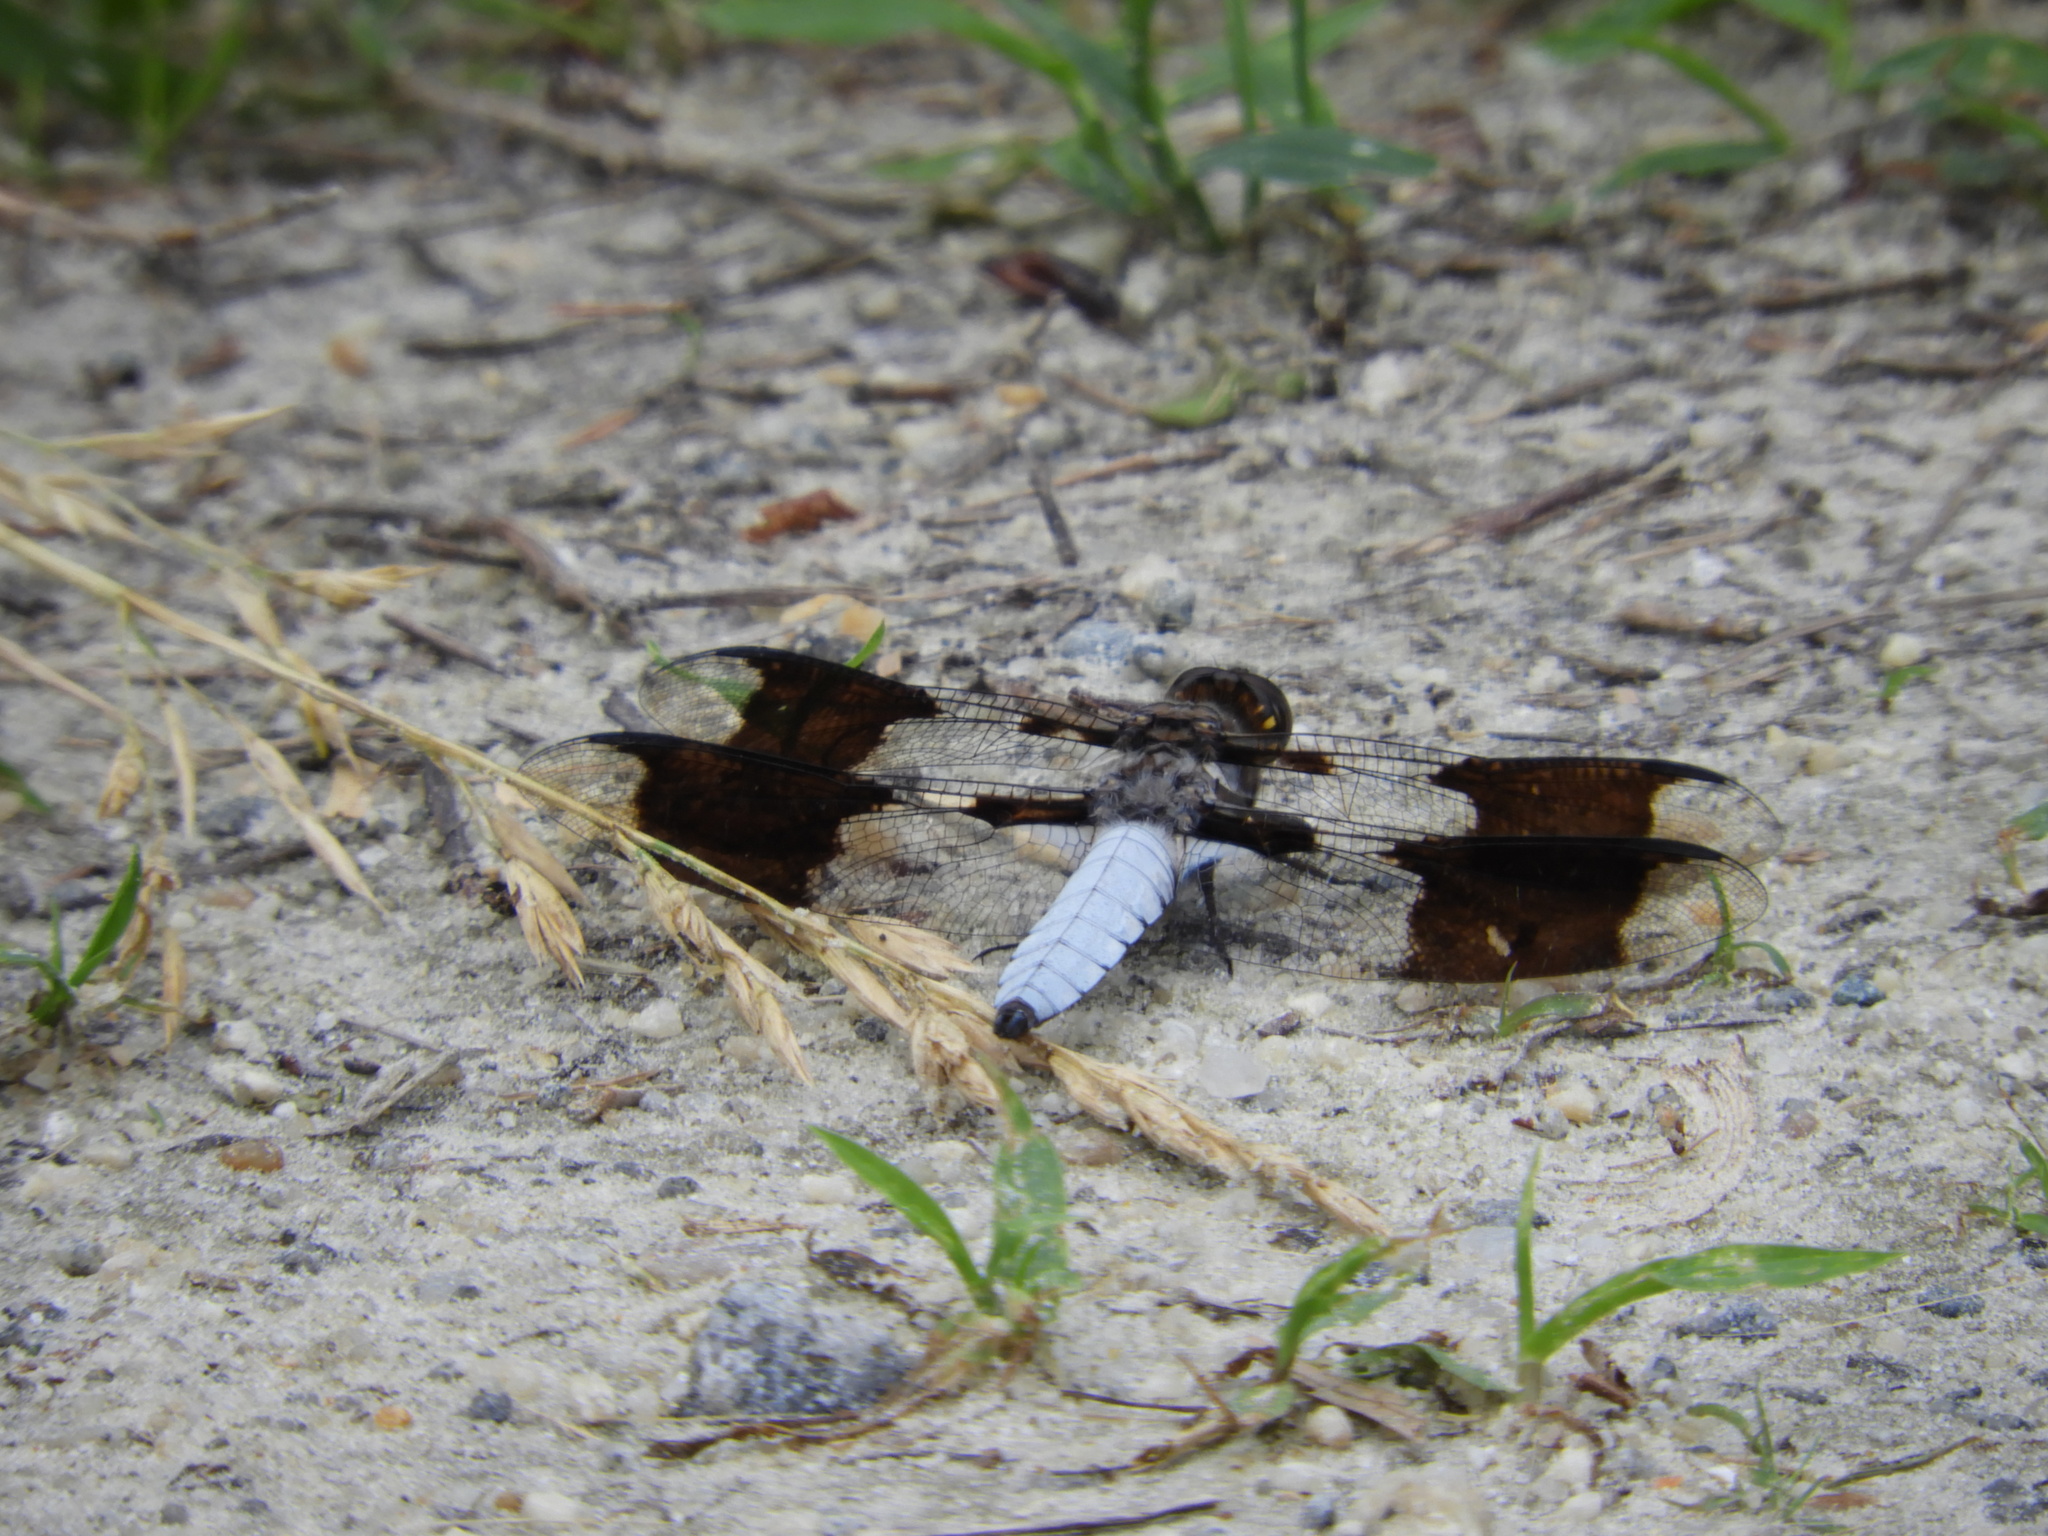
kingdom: Animalia
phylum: Arthropoda
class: Insecta
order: Odonata
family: Libellulidae
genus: Plathemis
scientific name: Plathemis lydia
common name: Common whitetail
